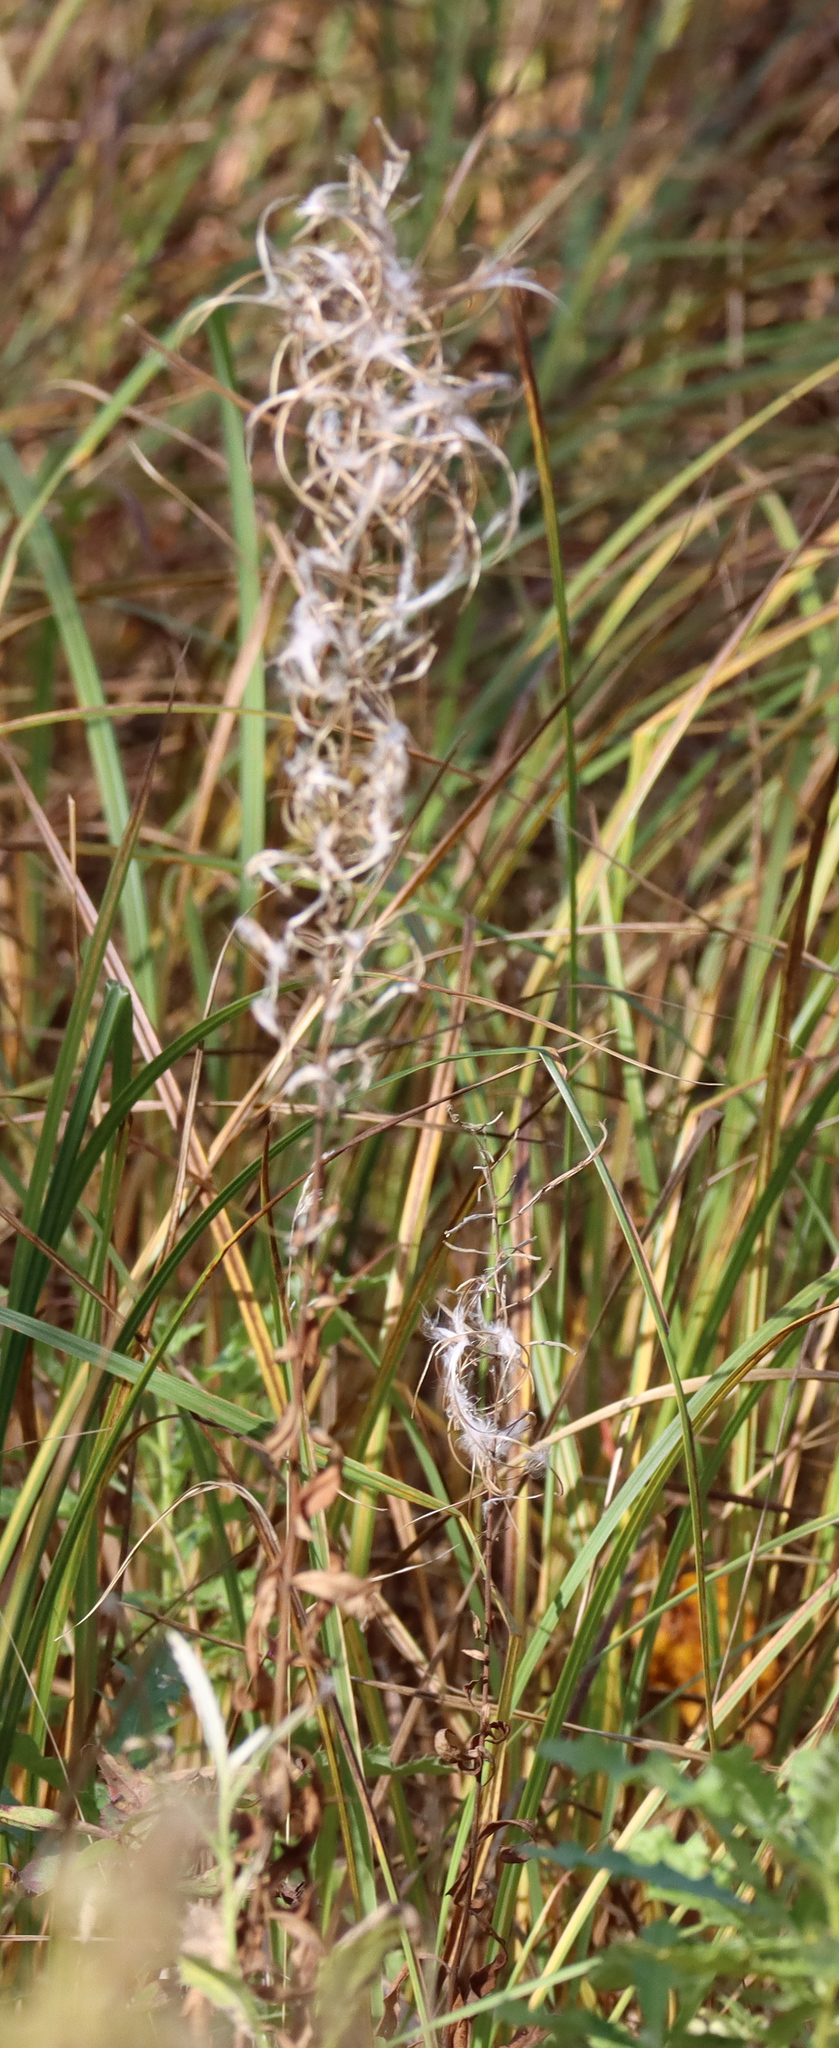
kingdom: Plantae
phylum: Tracheophyta
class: Magnoliopsida
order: Myrtales
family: Onagraceae
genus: Chamaenerion
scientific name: Chamaenerion angustifolium
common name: Fireweed
